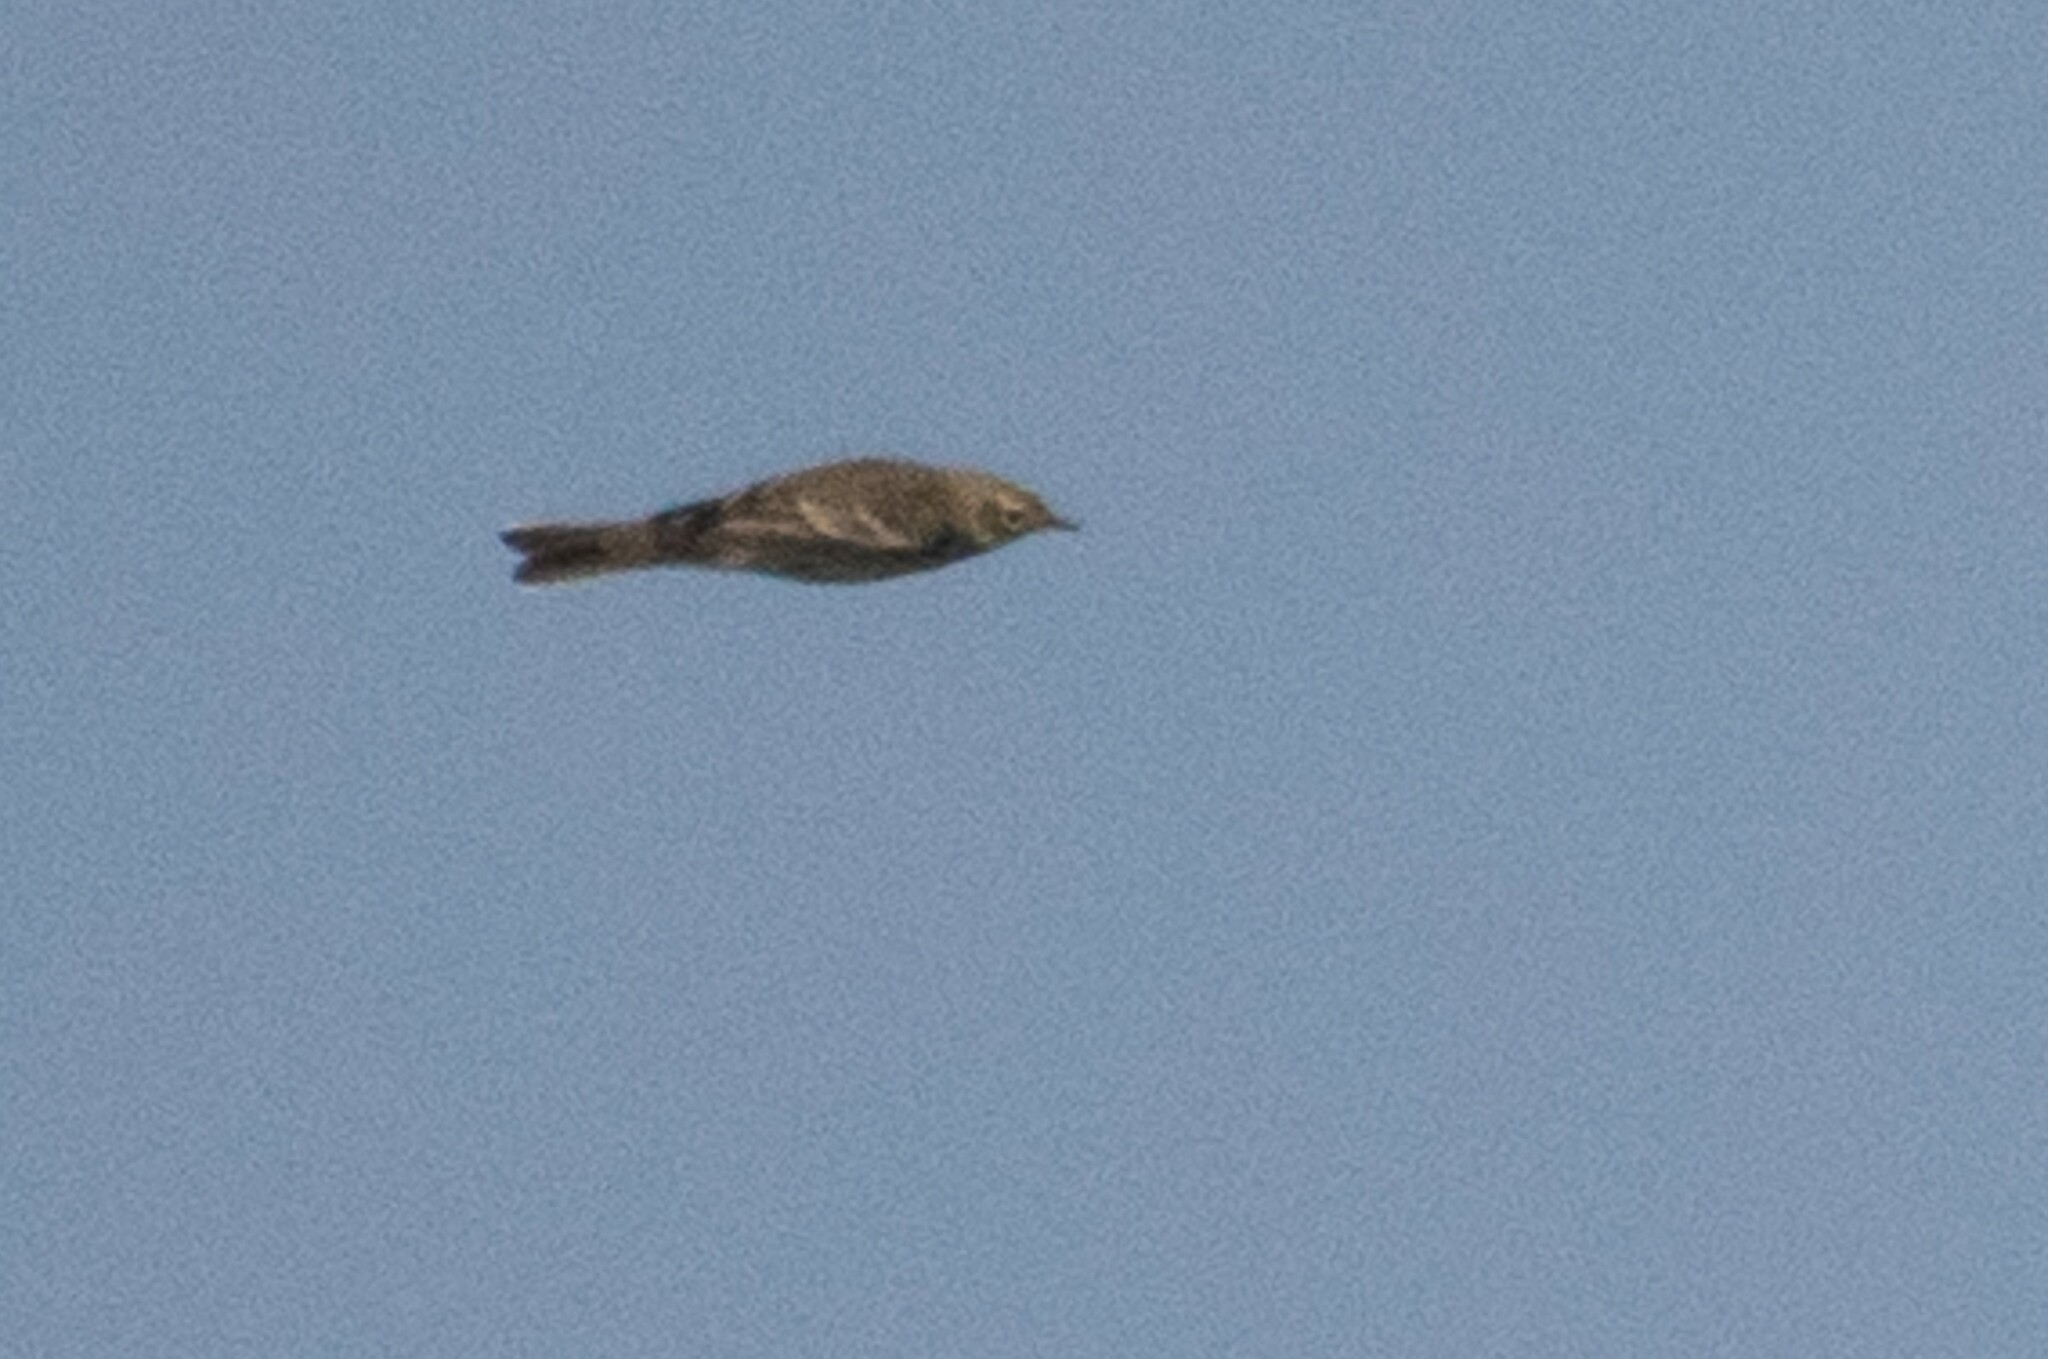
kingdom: Animalia
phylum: Chordata
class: Aves
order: Passeriformes
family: Motacillidae
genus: Anthus
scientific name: Anthus rubescens
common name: Buff-bellied pipit
